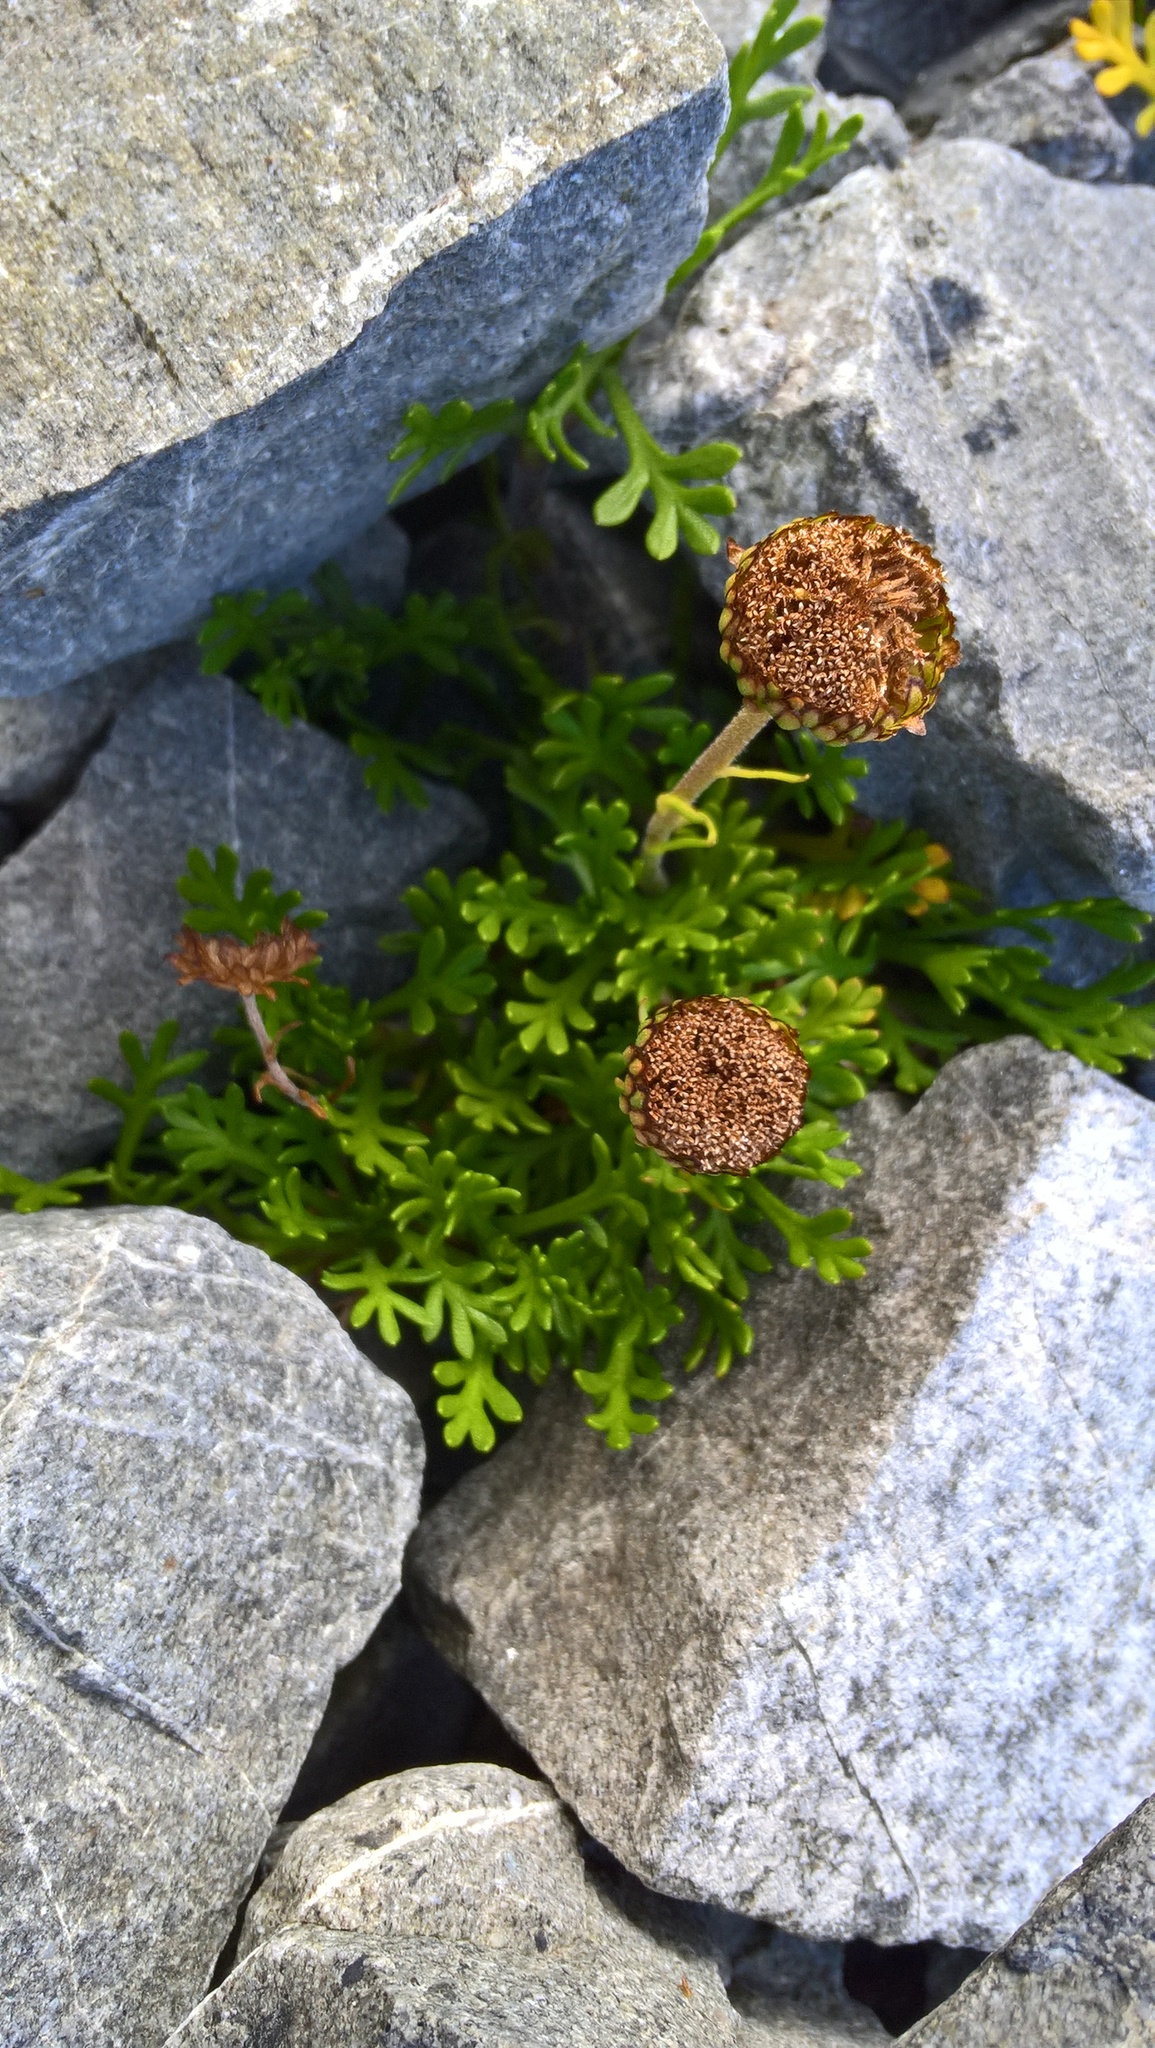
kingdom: Plantae
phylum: Tracheophyta
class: Magnoliopsida
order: Asterales
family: Asteraceae
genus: Leptinella
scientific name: Leptinella pyrethrifolia
